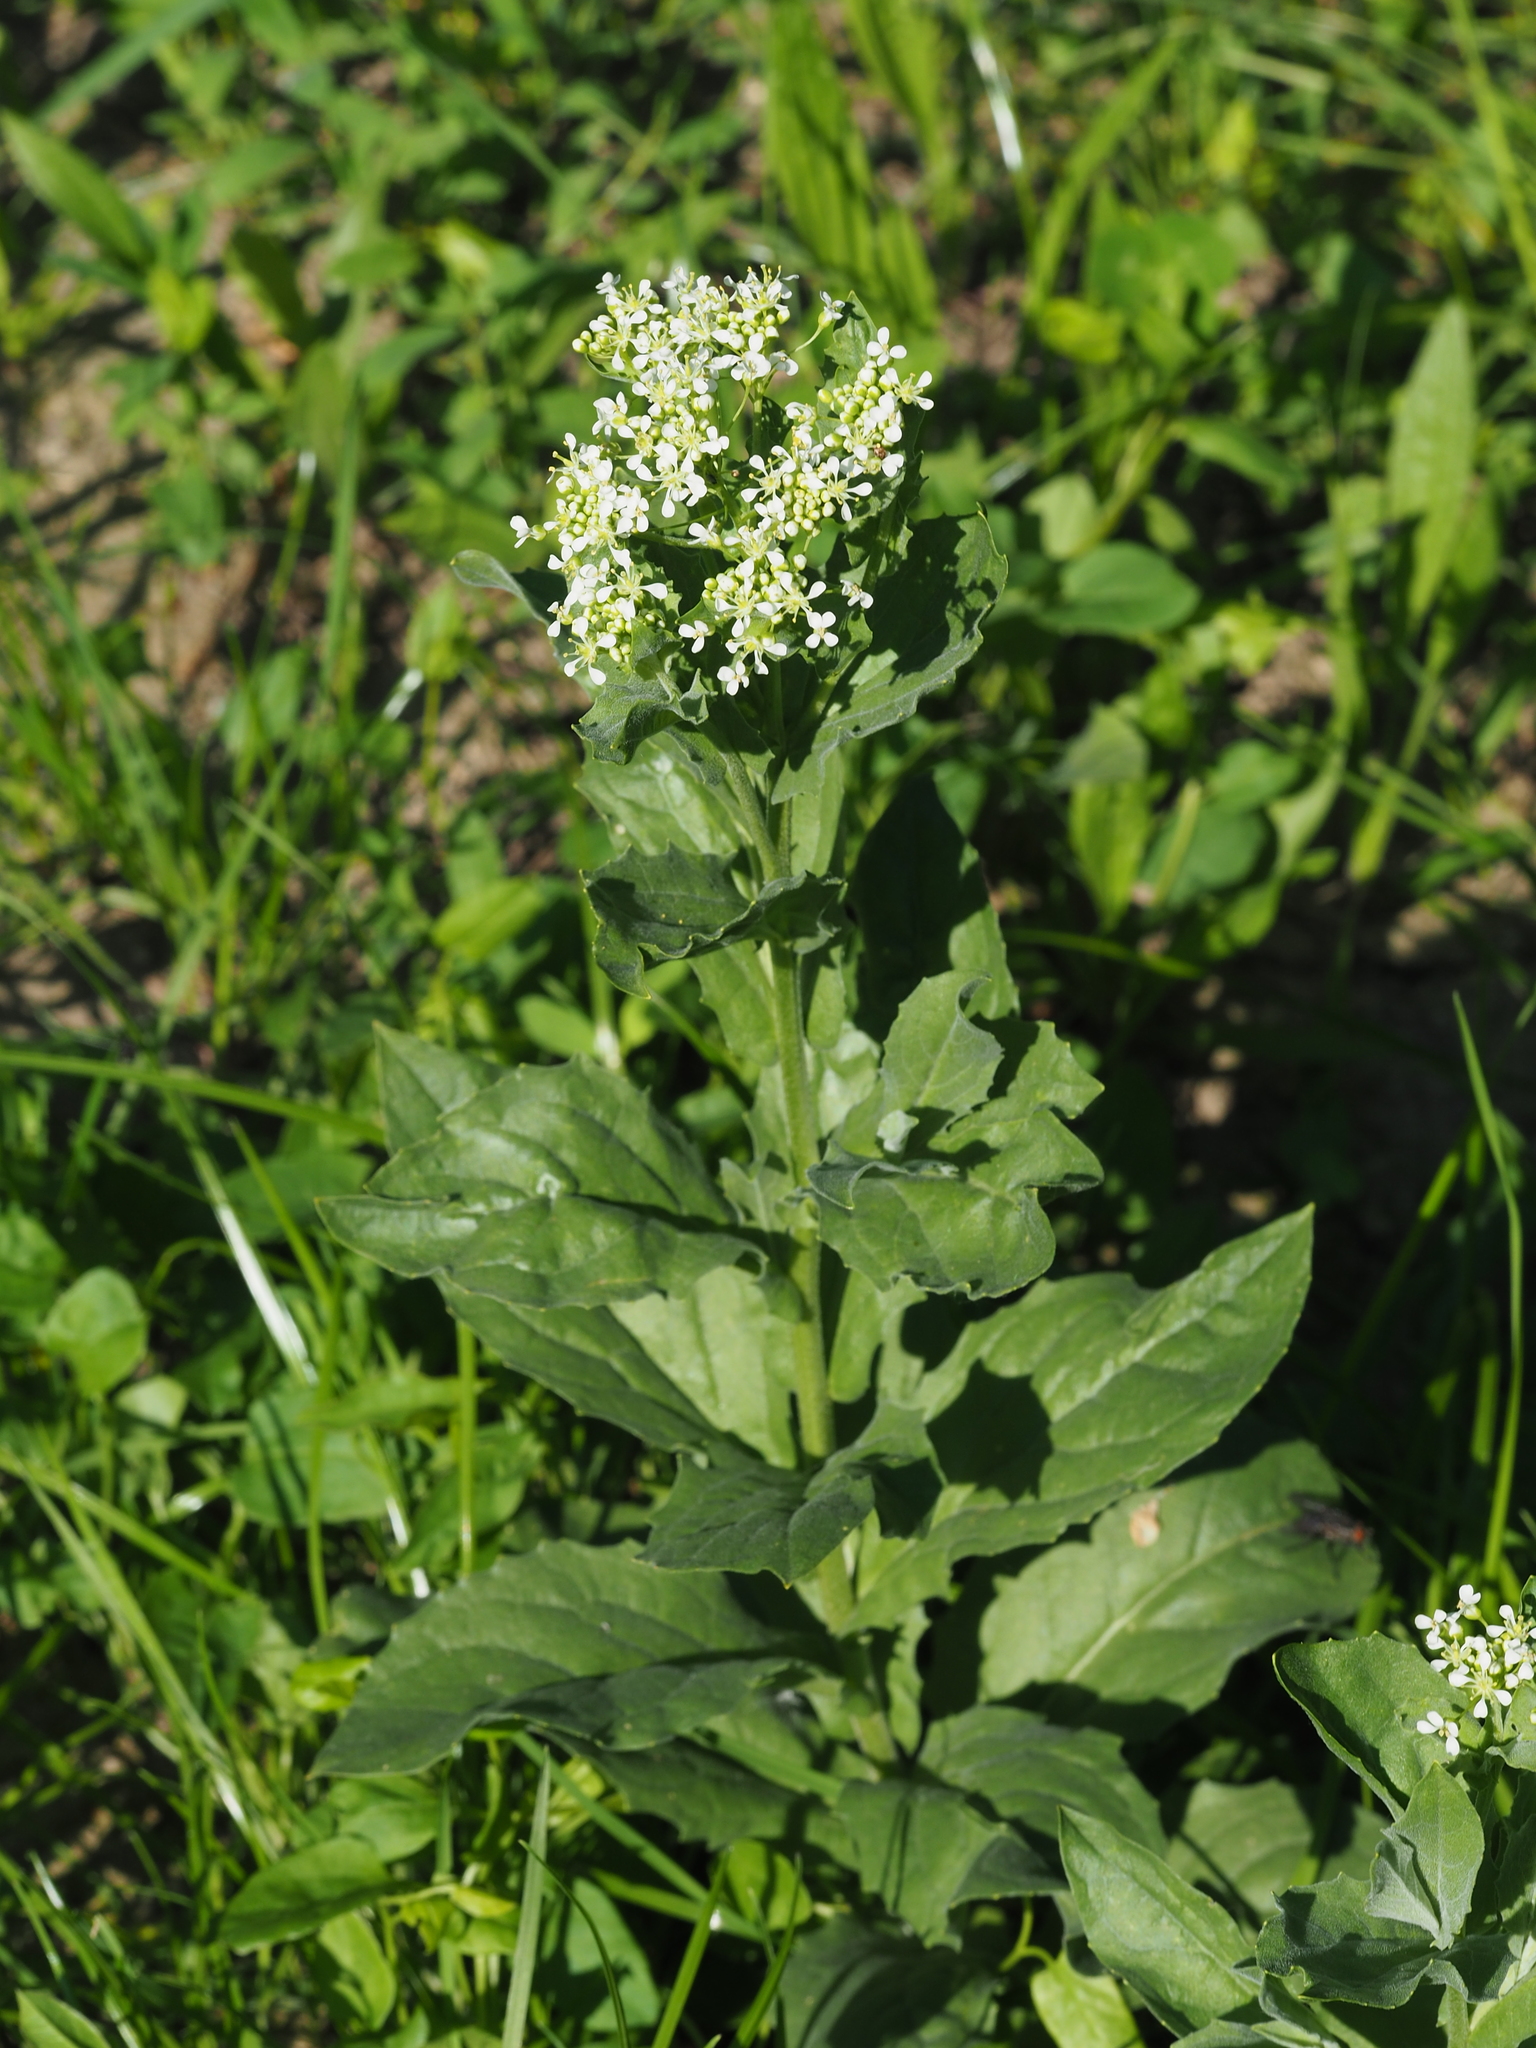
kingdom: Plantae
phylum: Tracheophyta
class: Magnoliopsida
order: Brassicales
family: Brassicaceae
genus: Lepidium
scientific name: Lepidium draba
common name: Hoary cress
